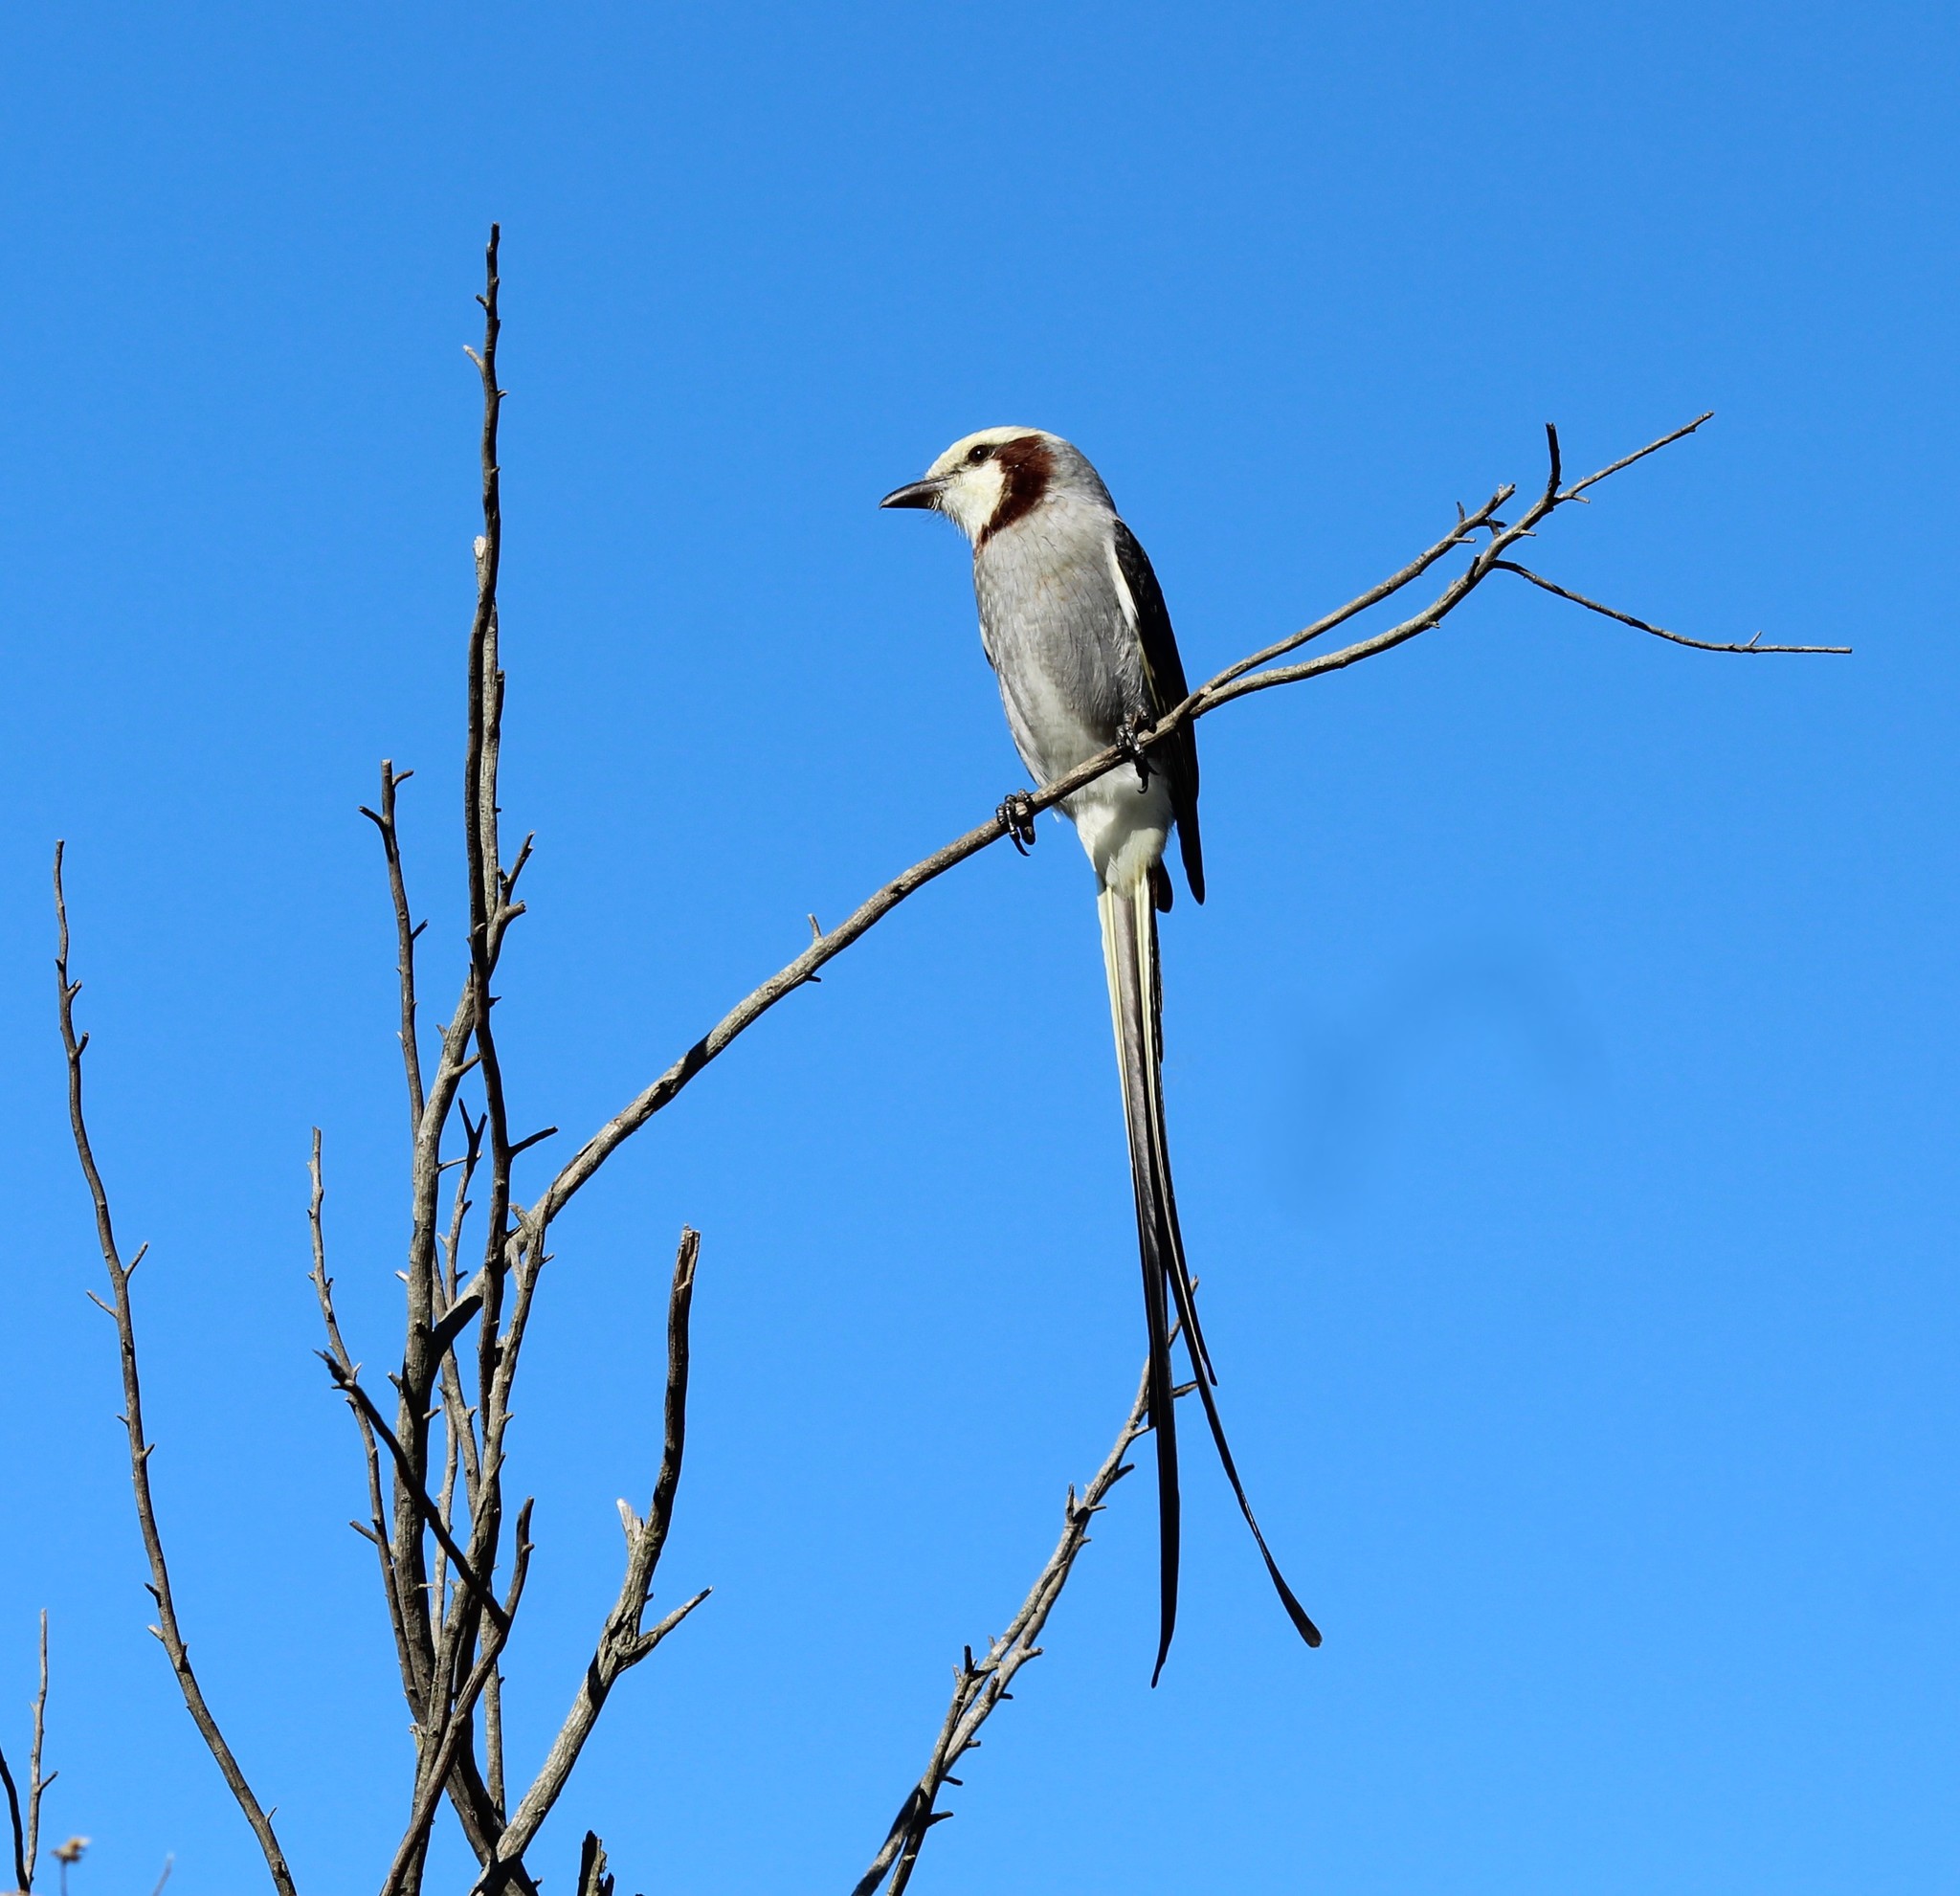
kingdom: Animalia
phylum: Chordata
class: Aves
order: Passeriformes
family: Tyrannidae
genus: Gubernetes
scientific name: Gubernetes yetapa
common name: Streamer-tailed tyrant
